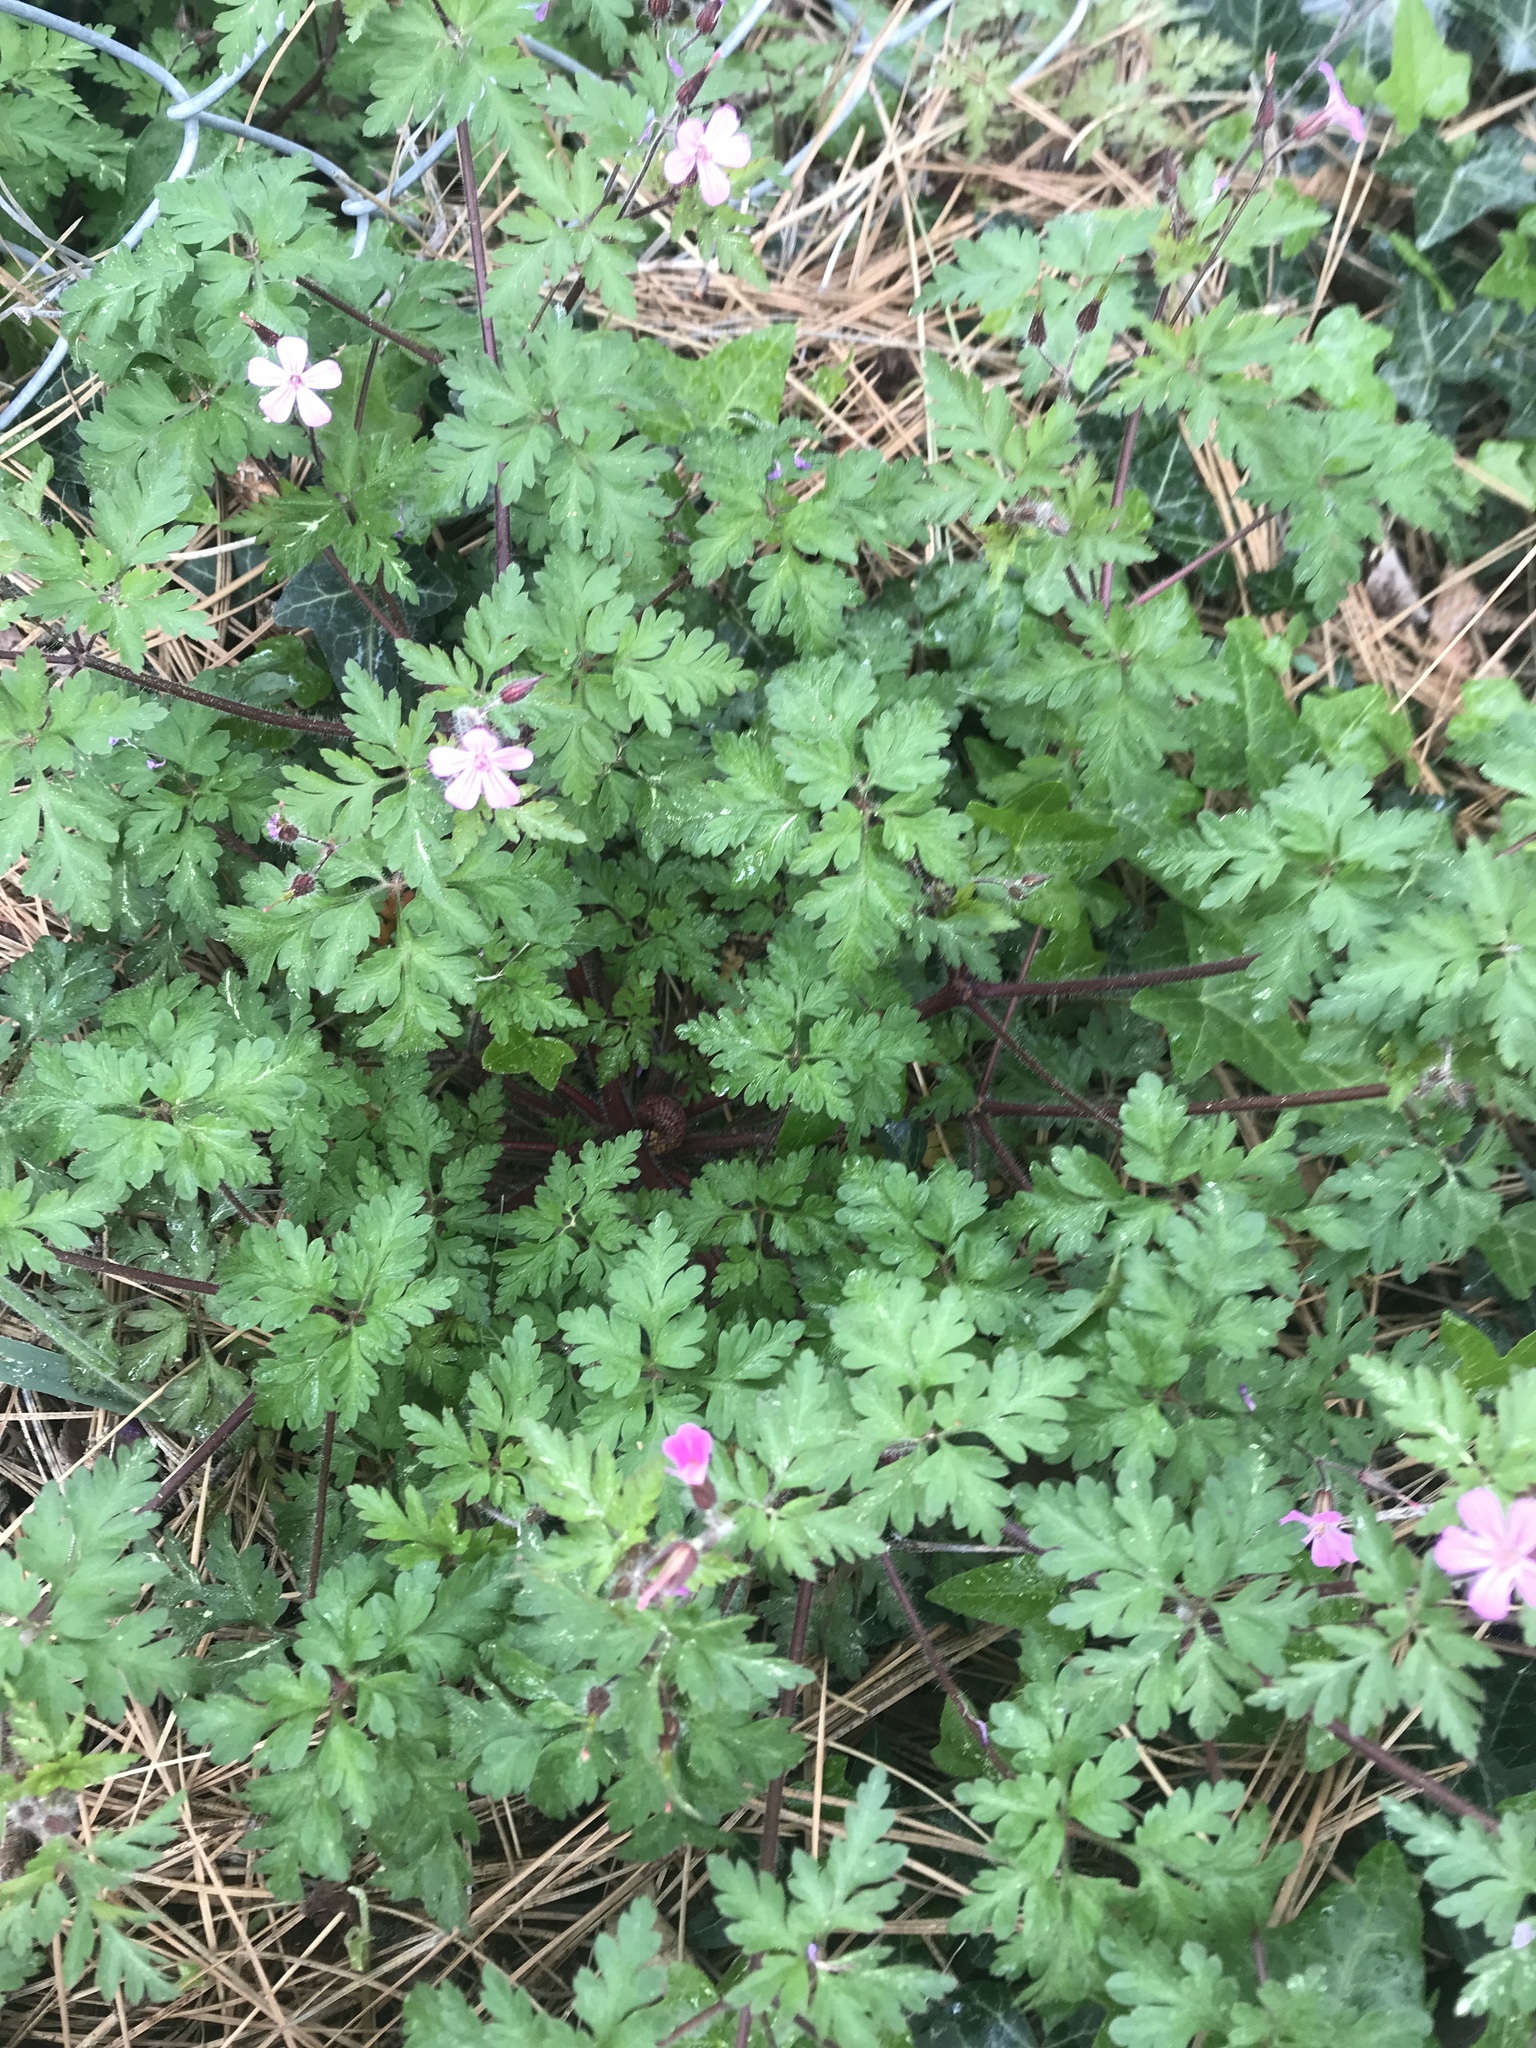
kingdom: Plantae
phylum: Tracheophyta
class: Magnoliopsida
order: Geraniales
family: Geraniaceae
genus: Geranium
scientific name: Geranium robertianum
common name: Herb-robert
